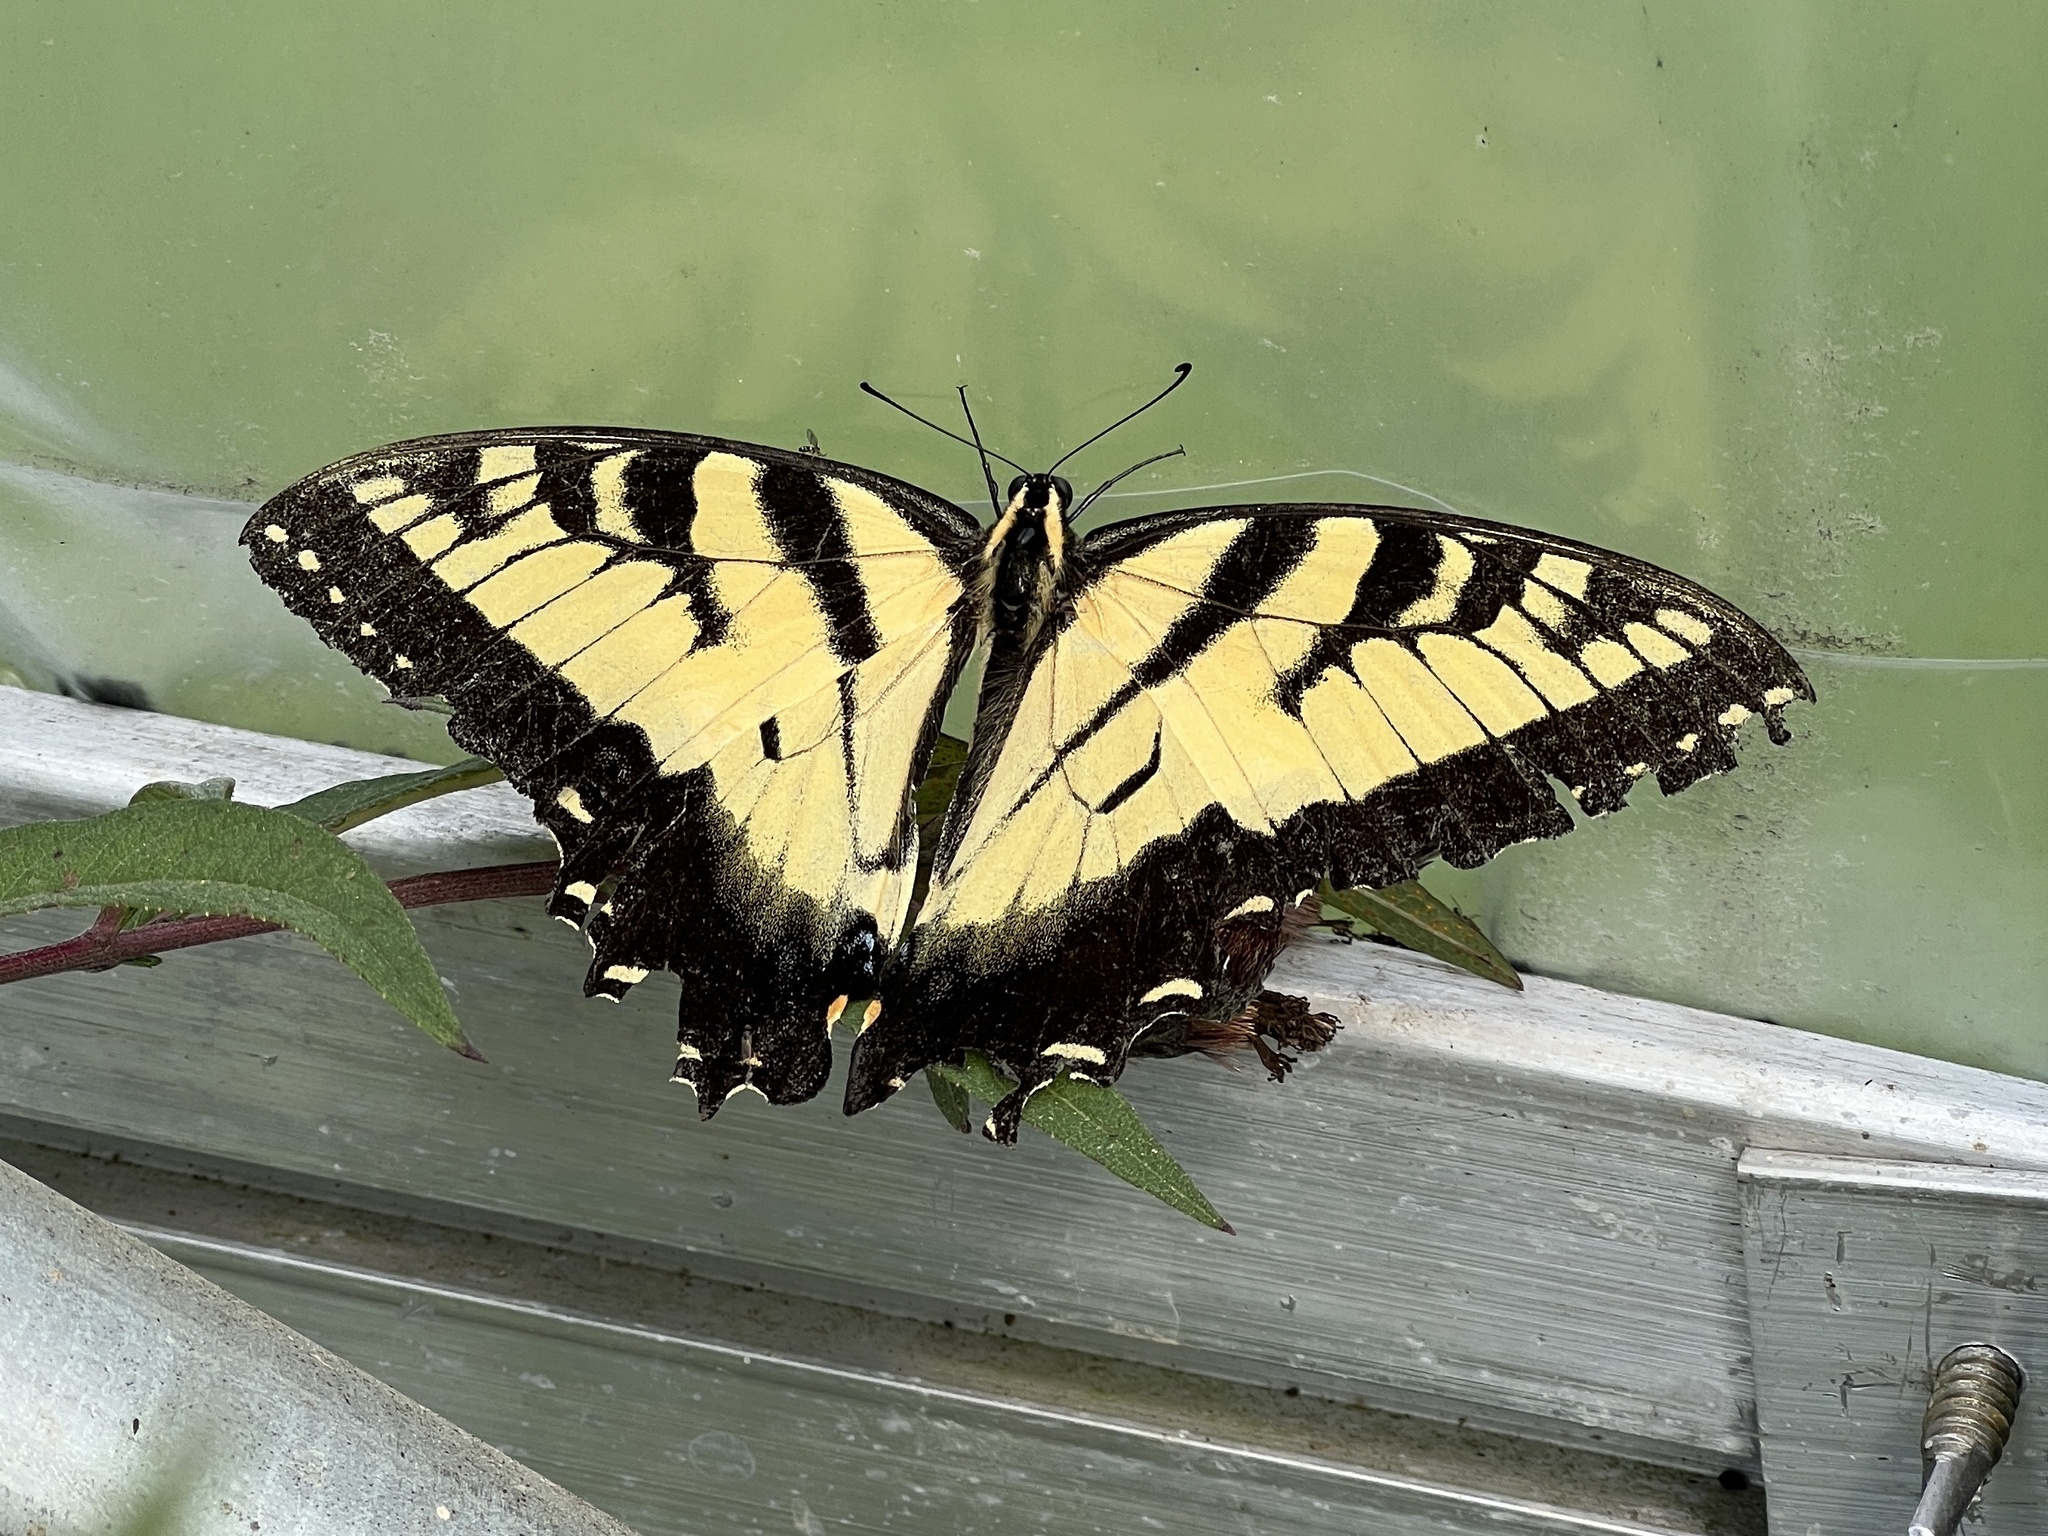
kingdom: Animalia
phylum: Arthropoda
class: Insecta
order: Lepidoptera
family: Papilionidae
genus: Papilio
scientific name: Papilio glaucus
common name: Tiger swallowtail
